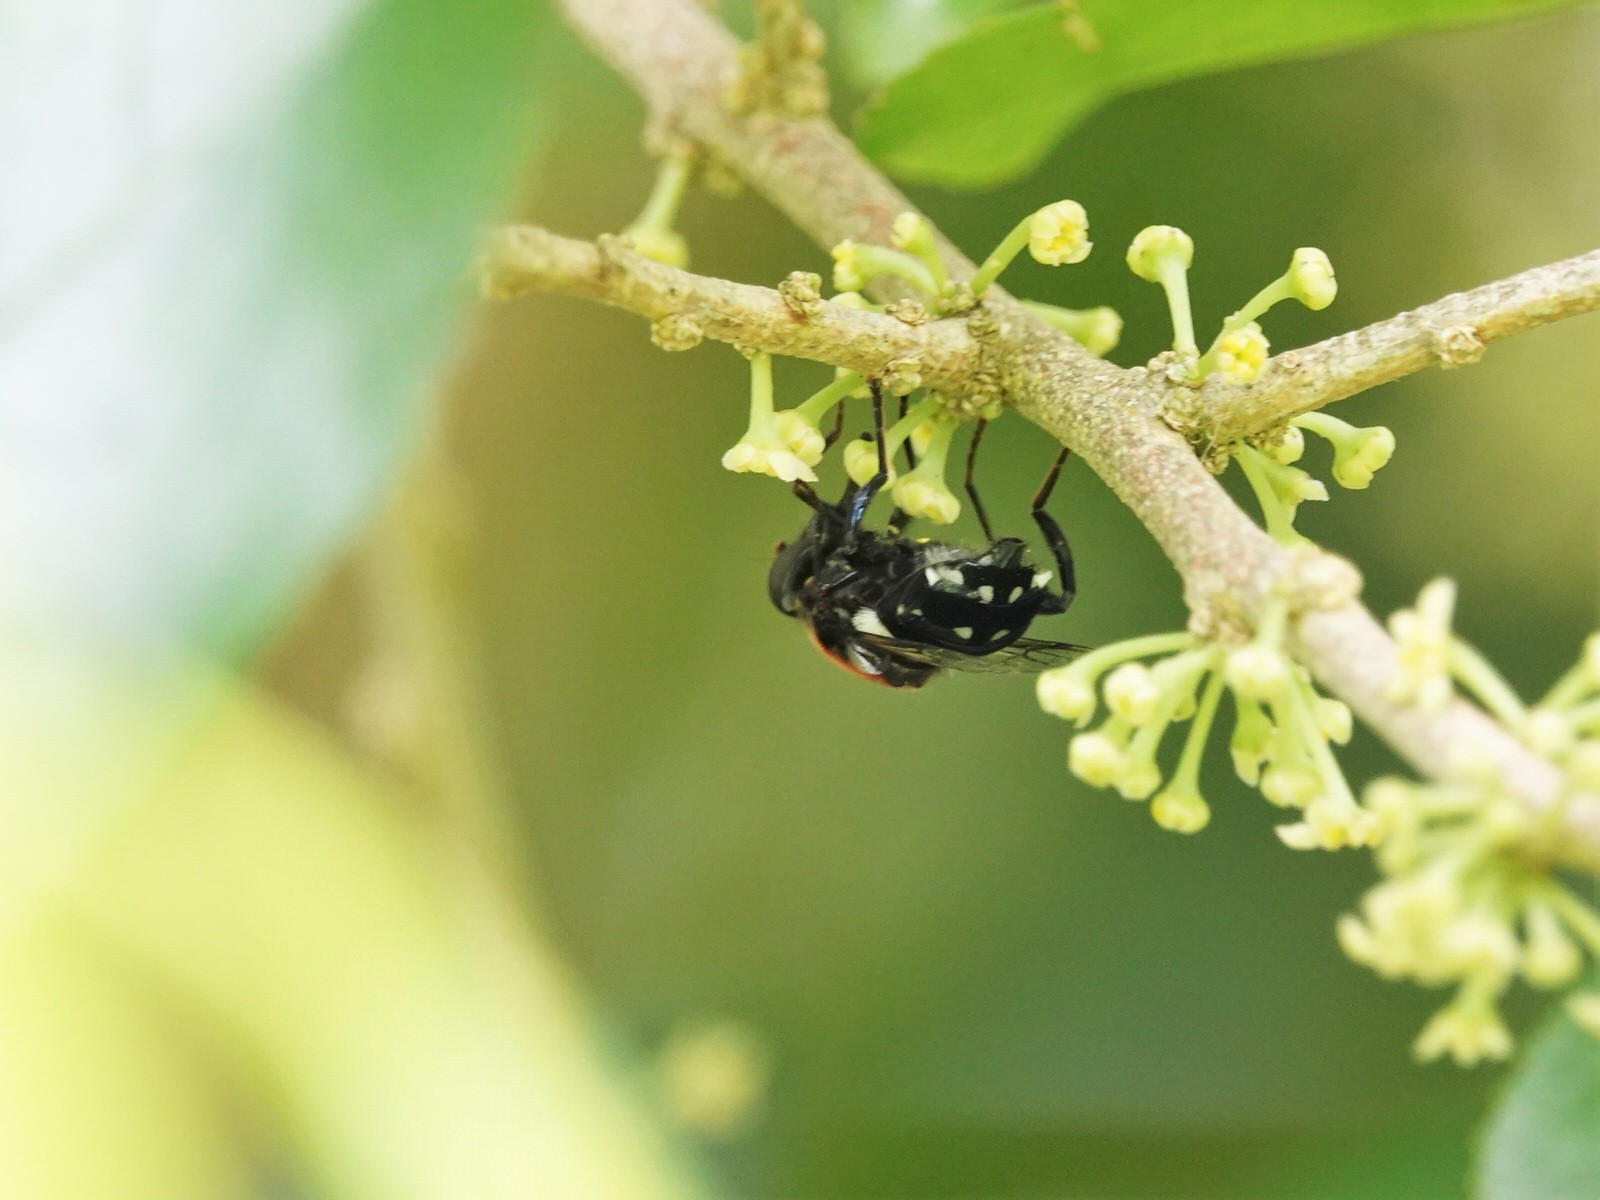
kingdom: Animalia
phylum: Arthropoda
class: Insecta
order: Diptera
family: Syrphidae
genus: Helophilus
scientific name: Helophilus cingulatus
